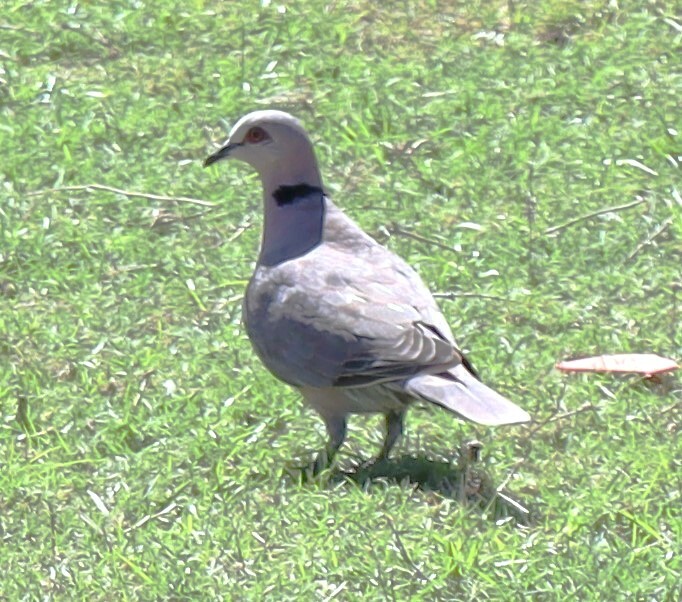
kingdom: Animalia
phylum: Chordata
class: Aves
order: Columbiformes
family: Columbidae
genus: Streptopelia
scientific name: Streptopelia semitorquata
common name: Red-eyed dove
